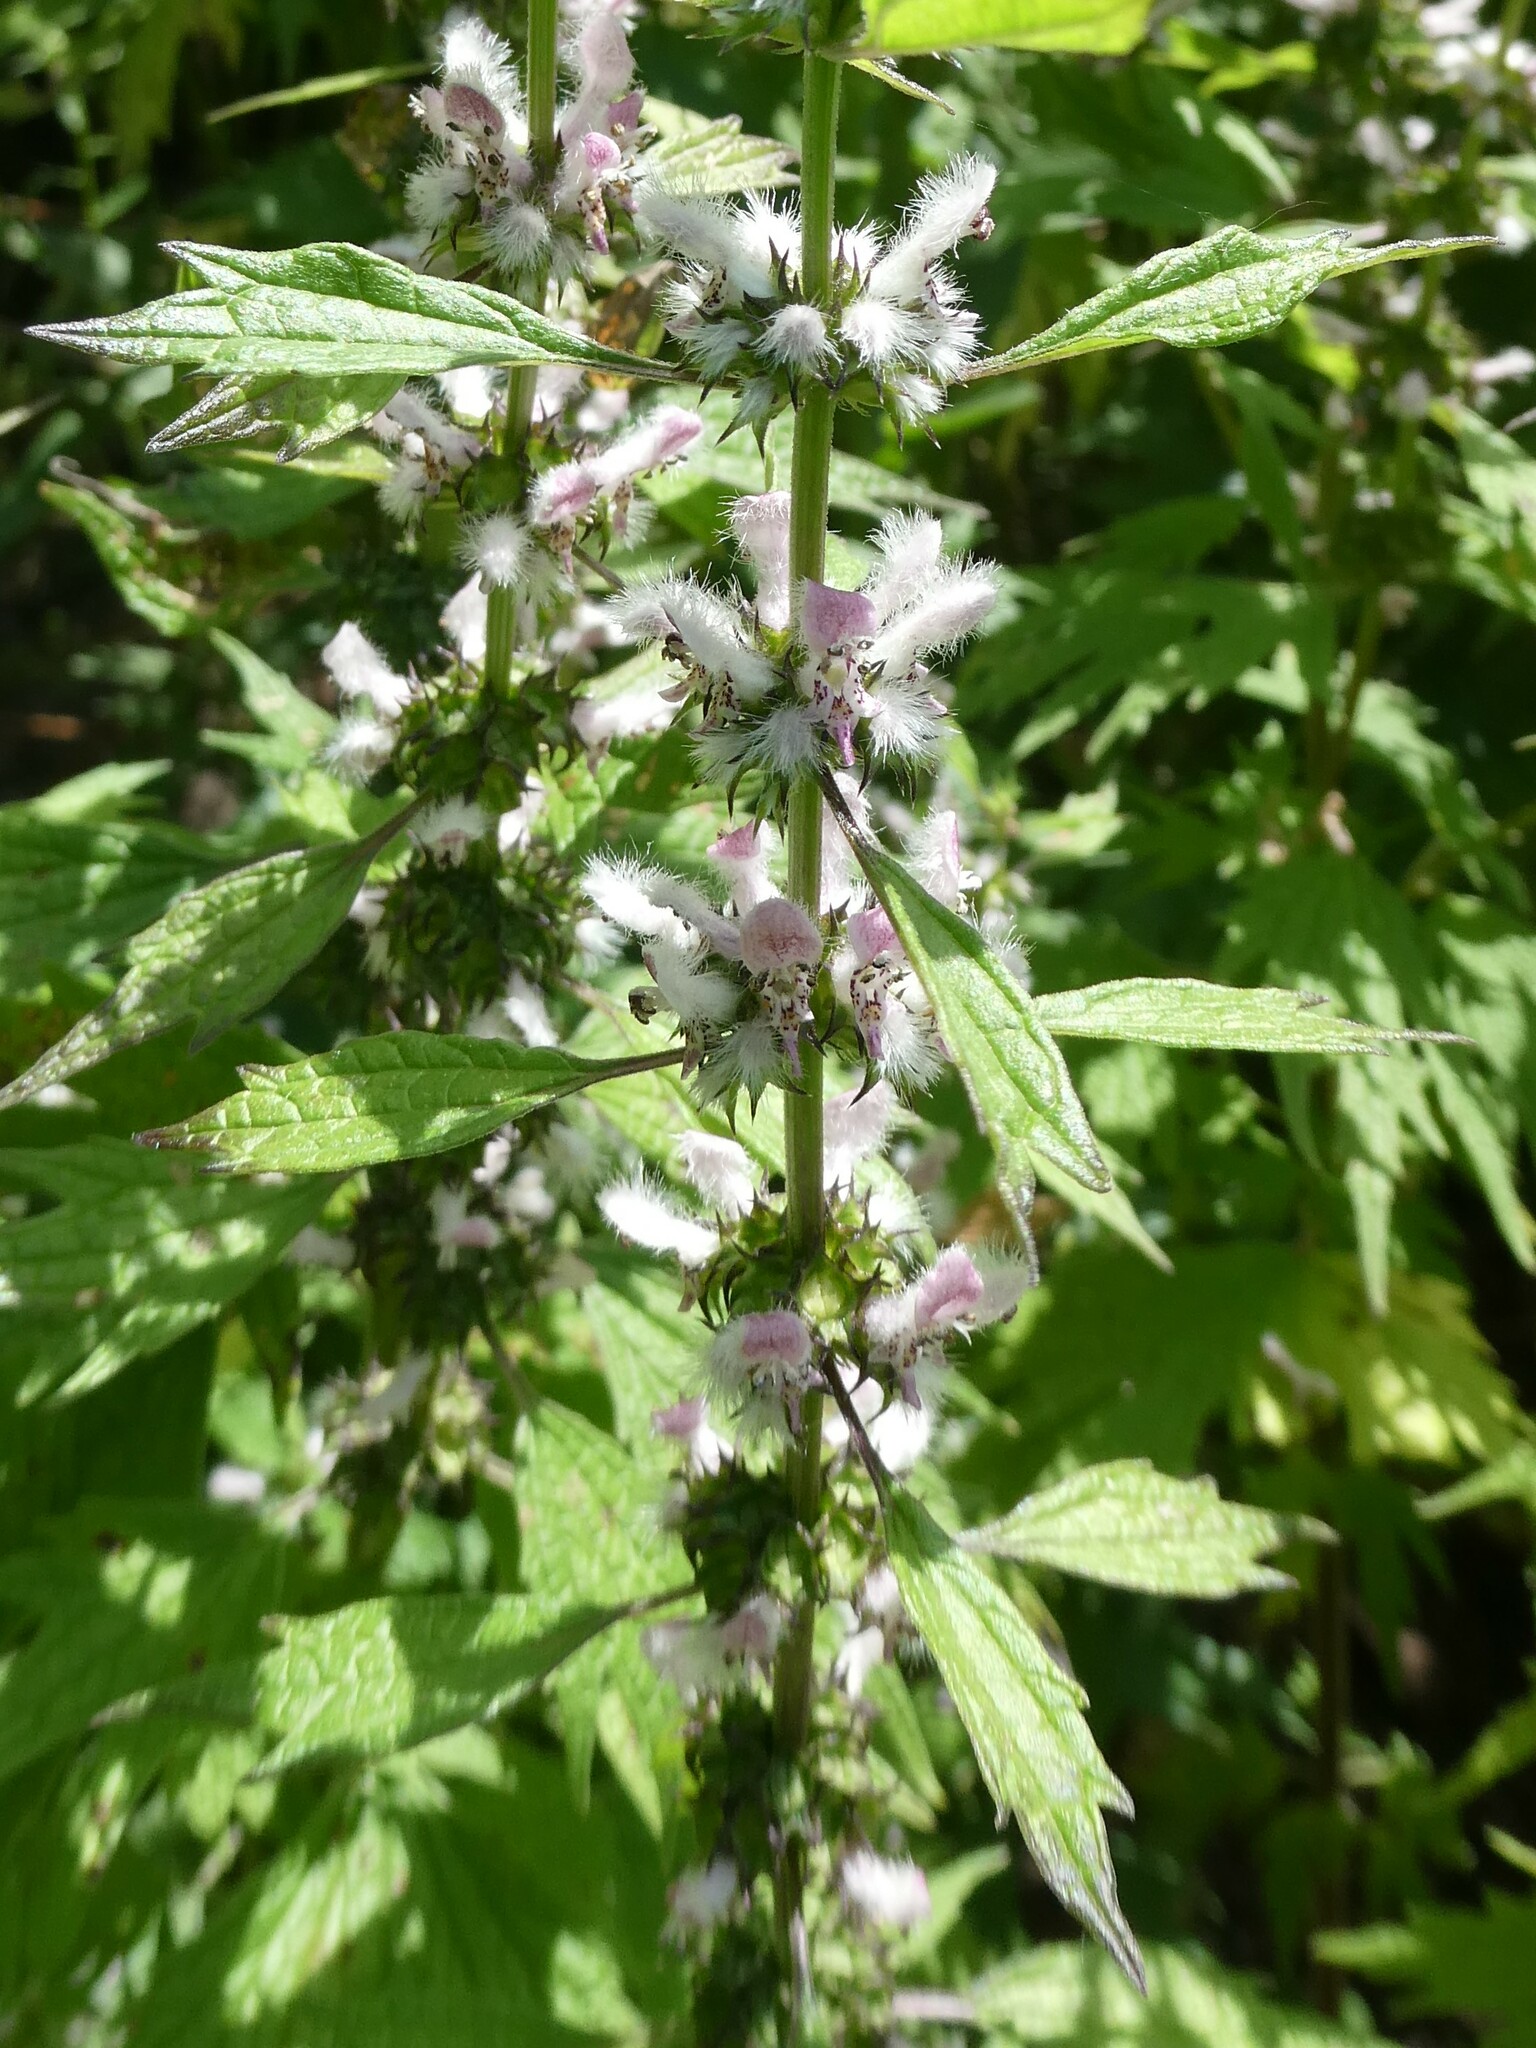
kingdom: Plantae
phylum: Tracheophyta
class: Magnoliopsida
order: Lamiales
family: Lamiaceae
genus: Leonurus
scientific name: Leonurus cardiaca
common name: Motherwort
